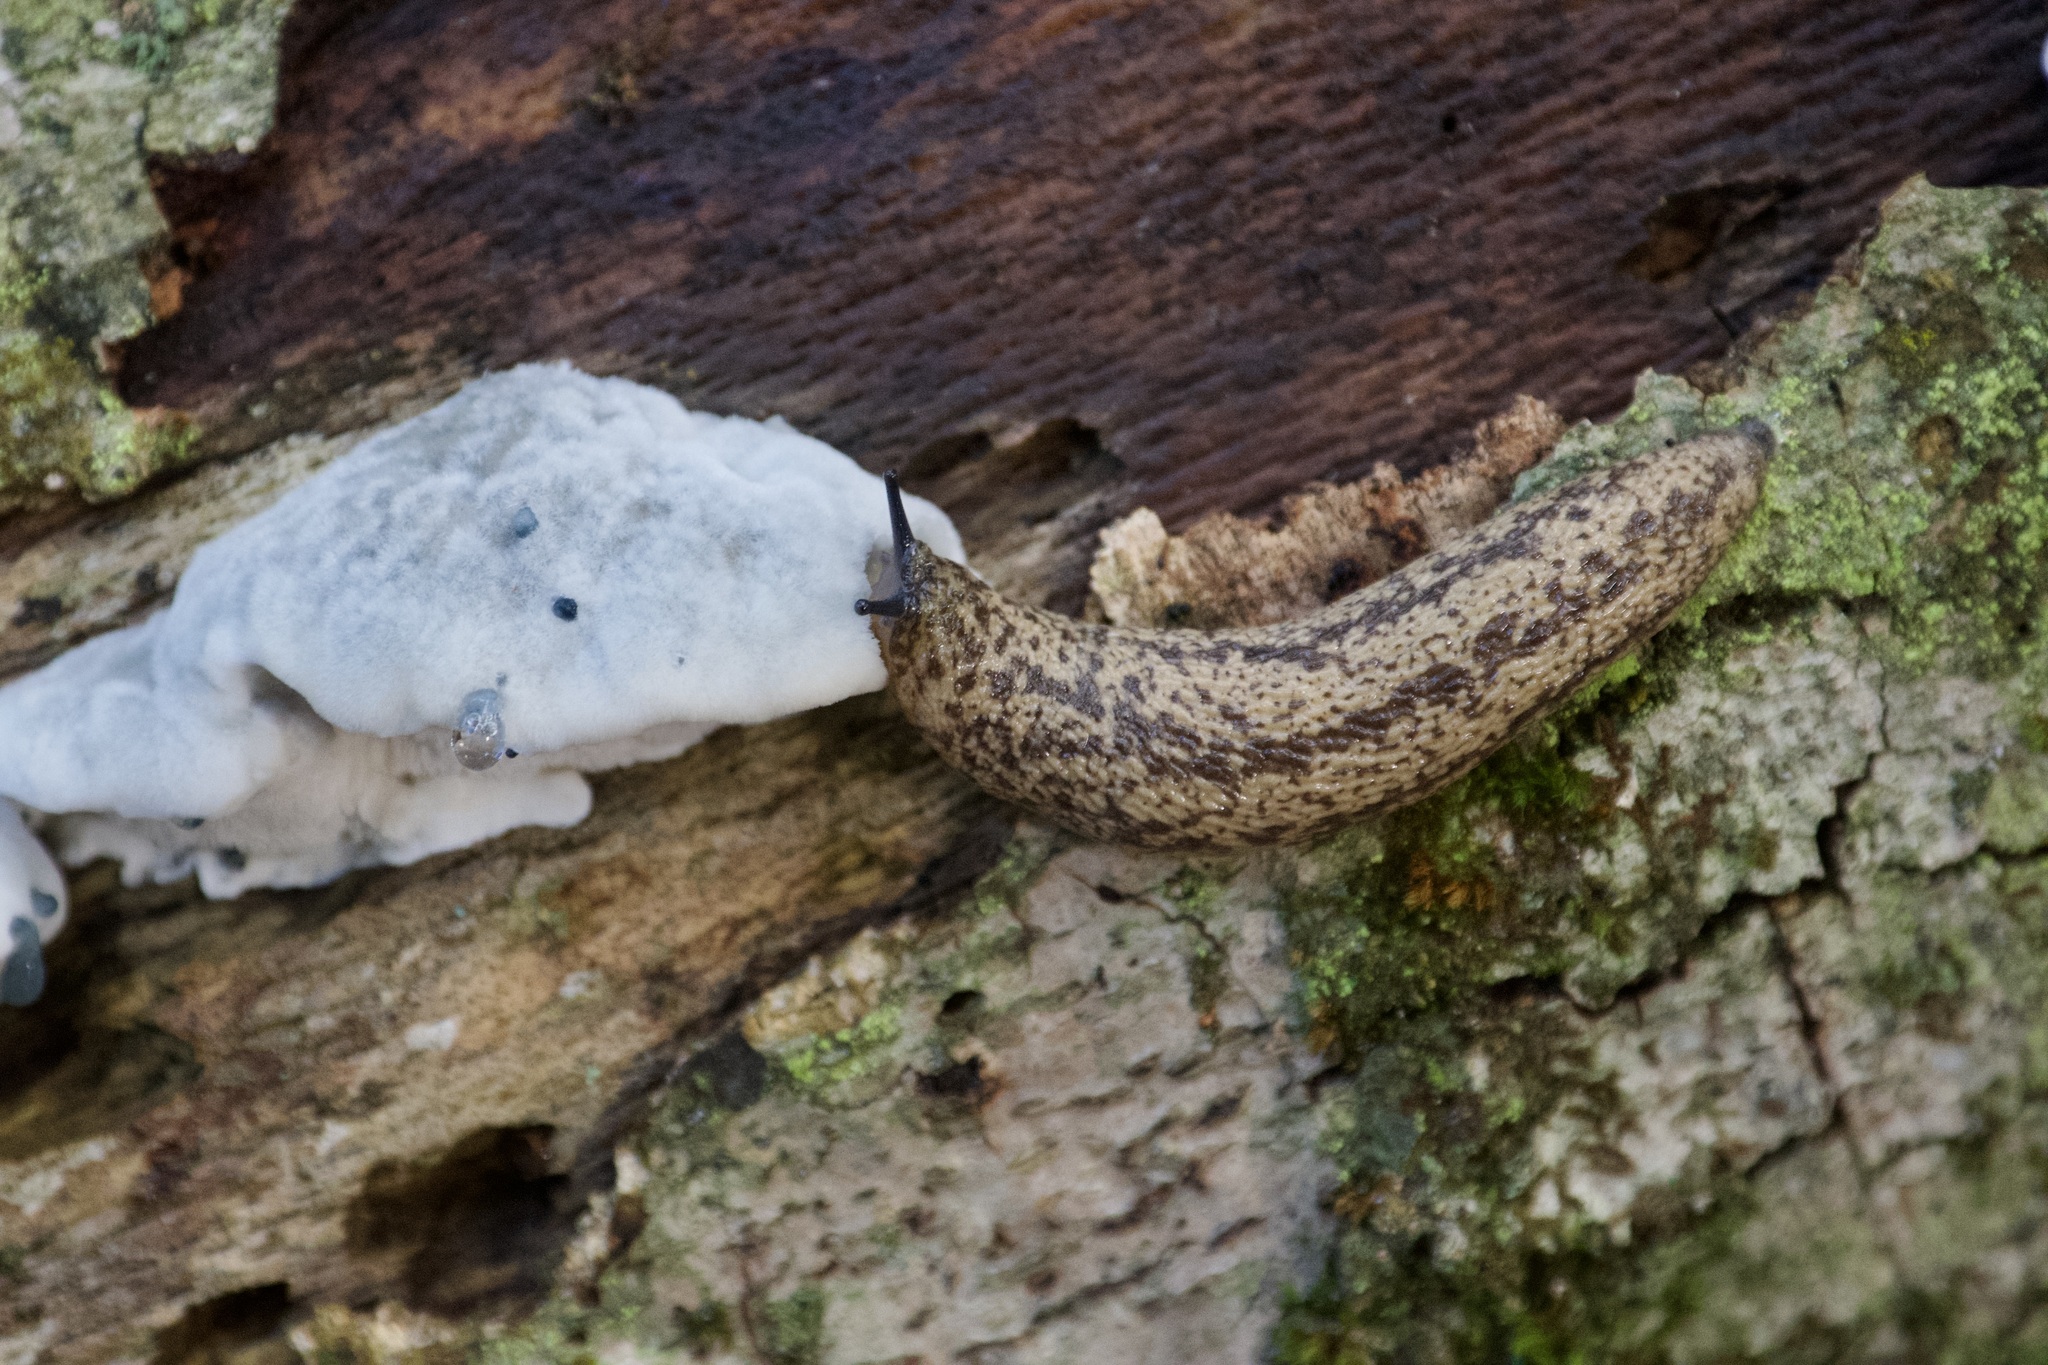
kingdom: Animalia
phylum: Mollusca
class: Gastropoda
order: Stylommatophora
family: Philomycidae
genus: Philomycus
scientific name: Philomycus flexuolaris
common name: Winding mantleslug
